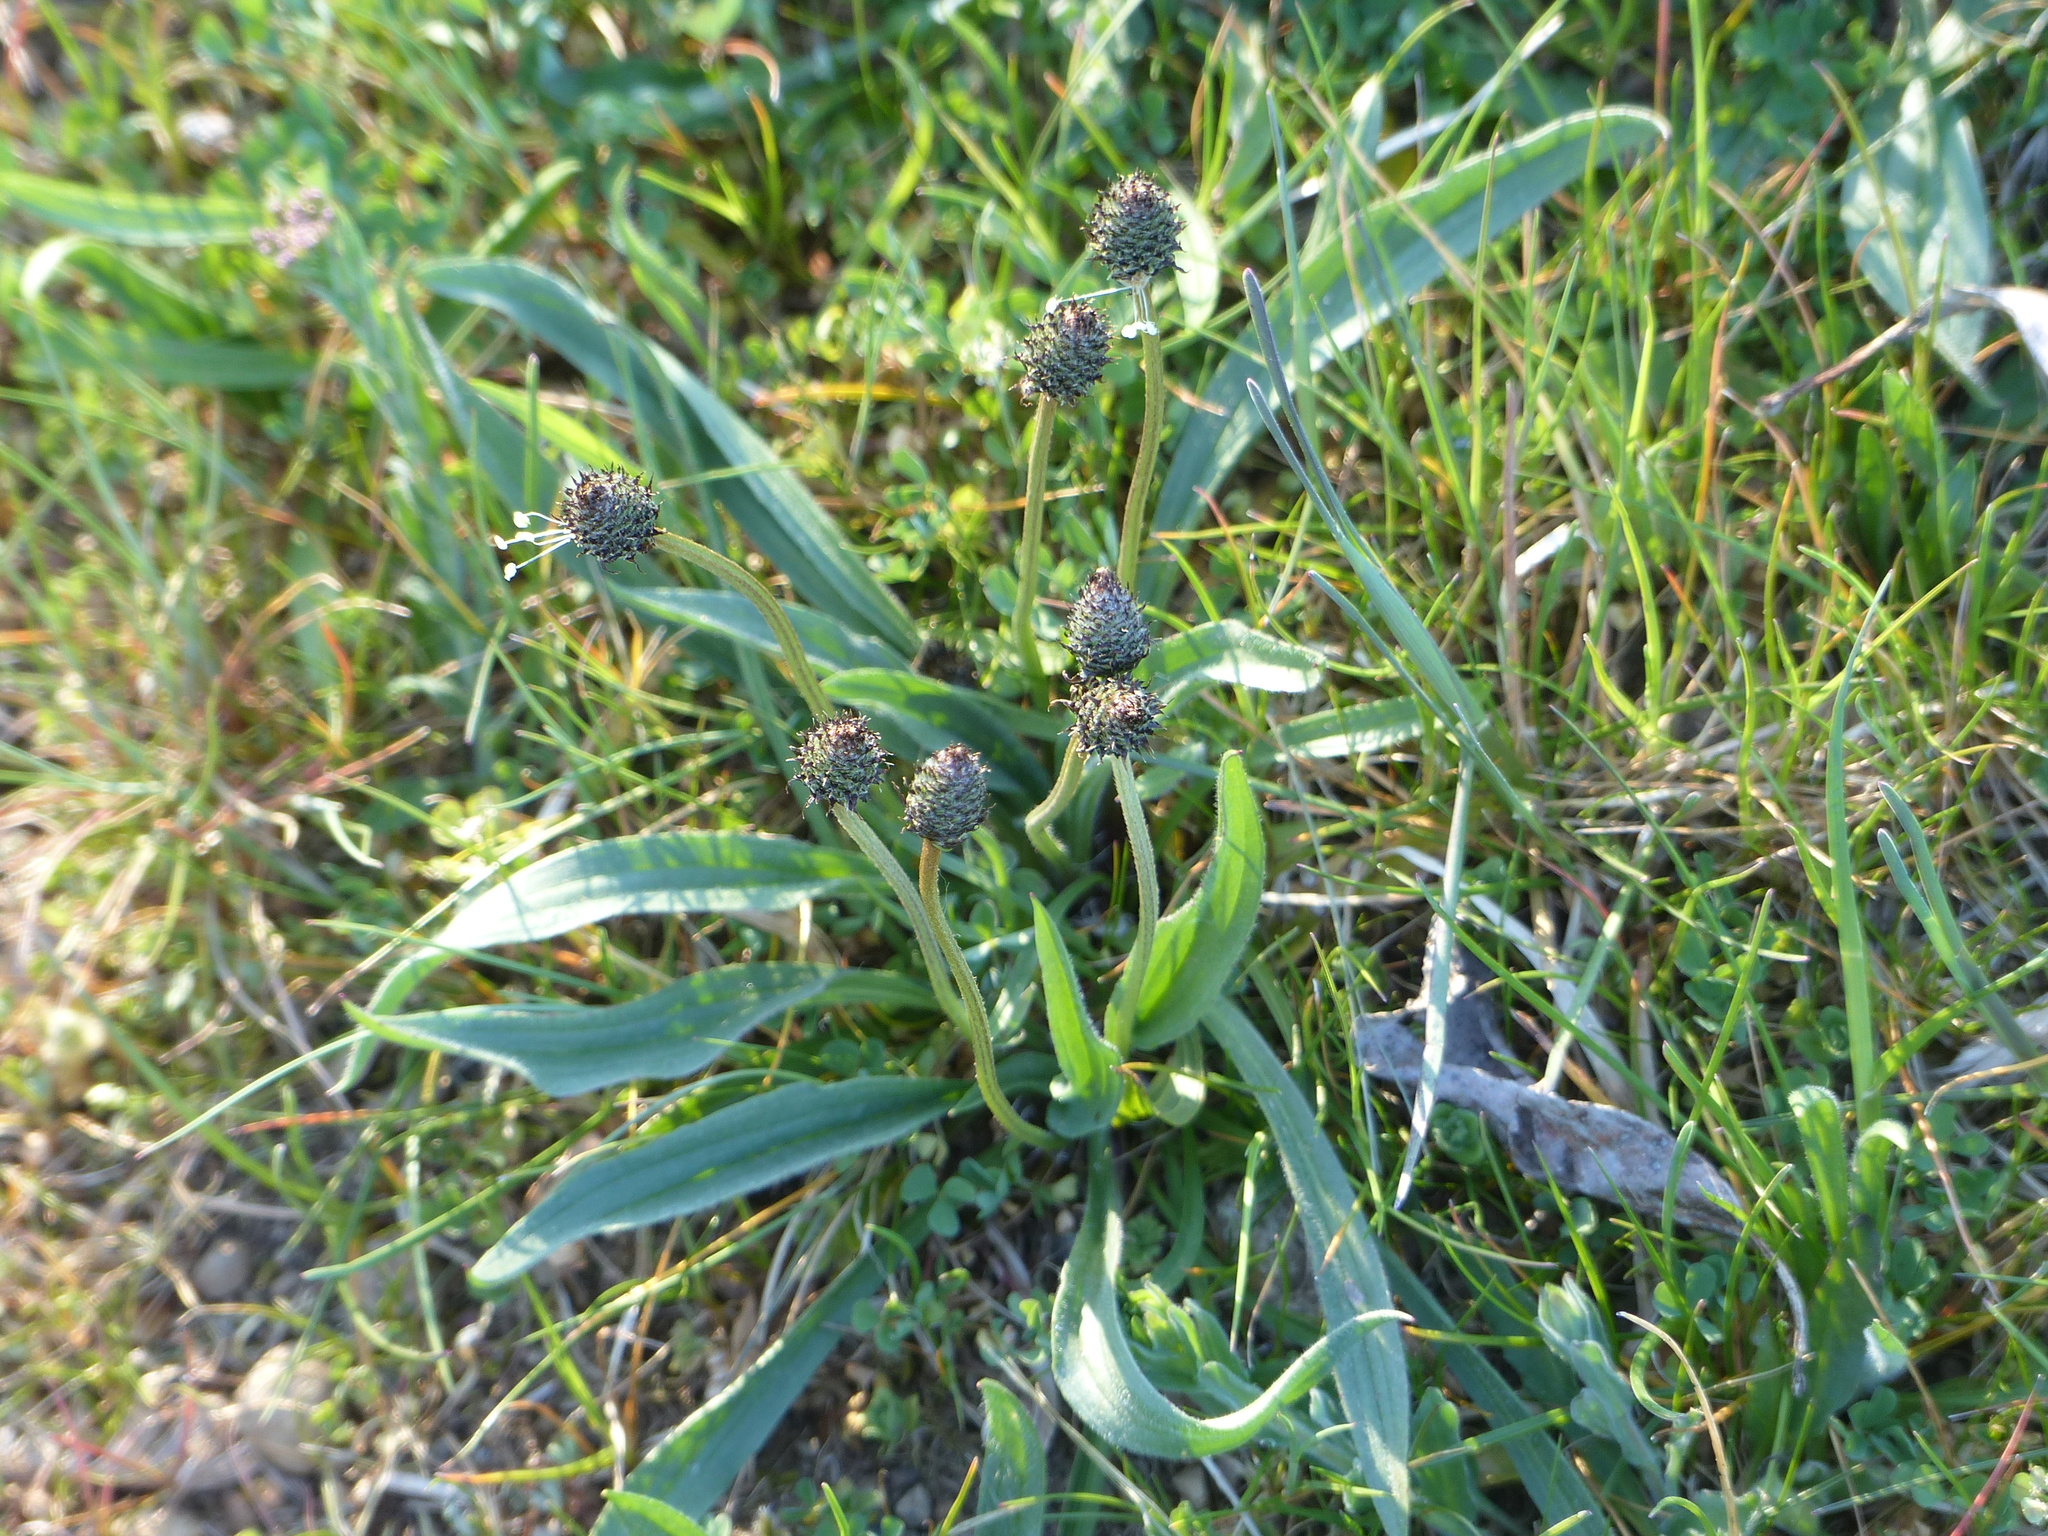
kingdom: Plantae
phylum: Tracheophyta
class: Magnoliopsida
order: Lamiales
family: Plantaginaceae
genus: Plantago
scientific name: Plantago lanceolata
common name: Ribwort plantain
